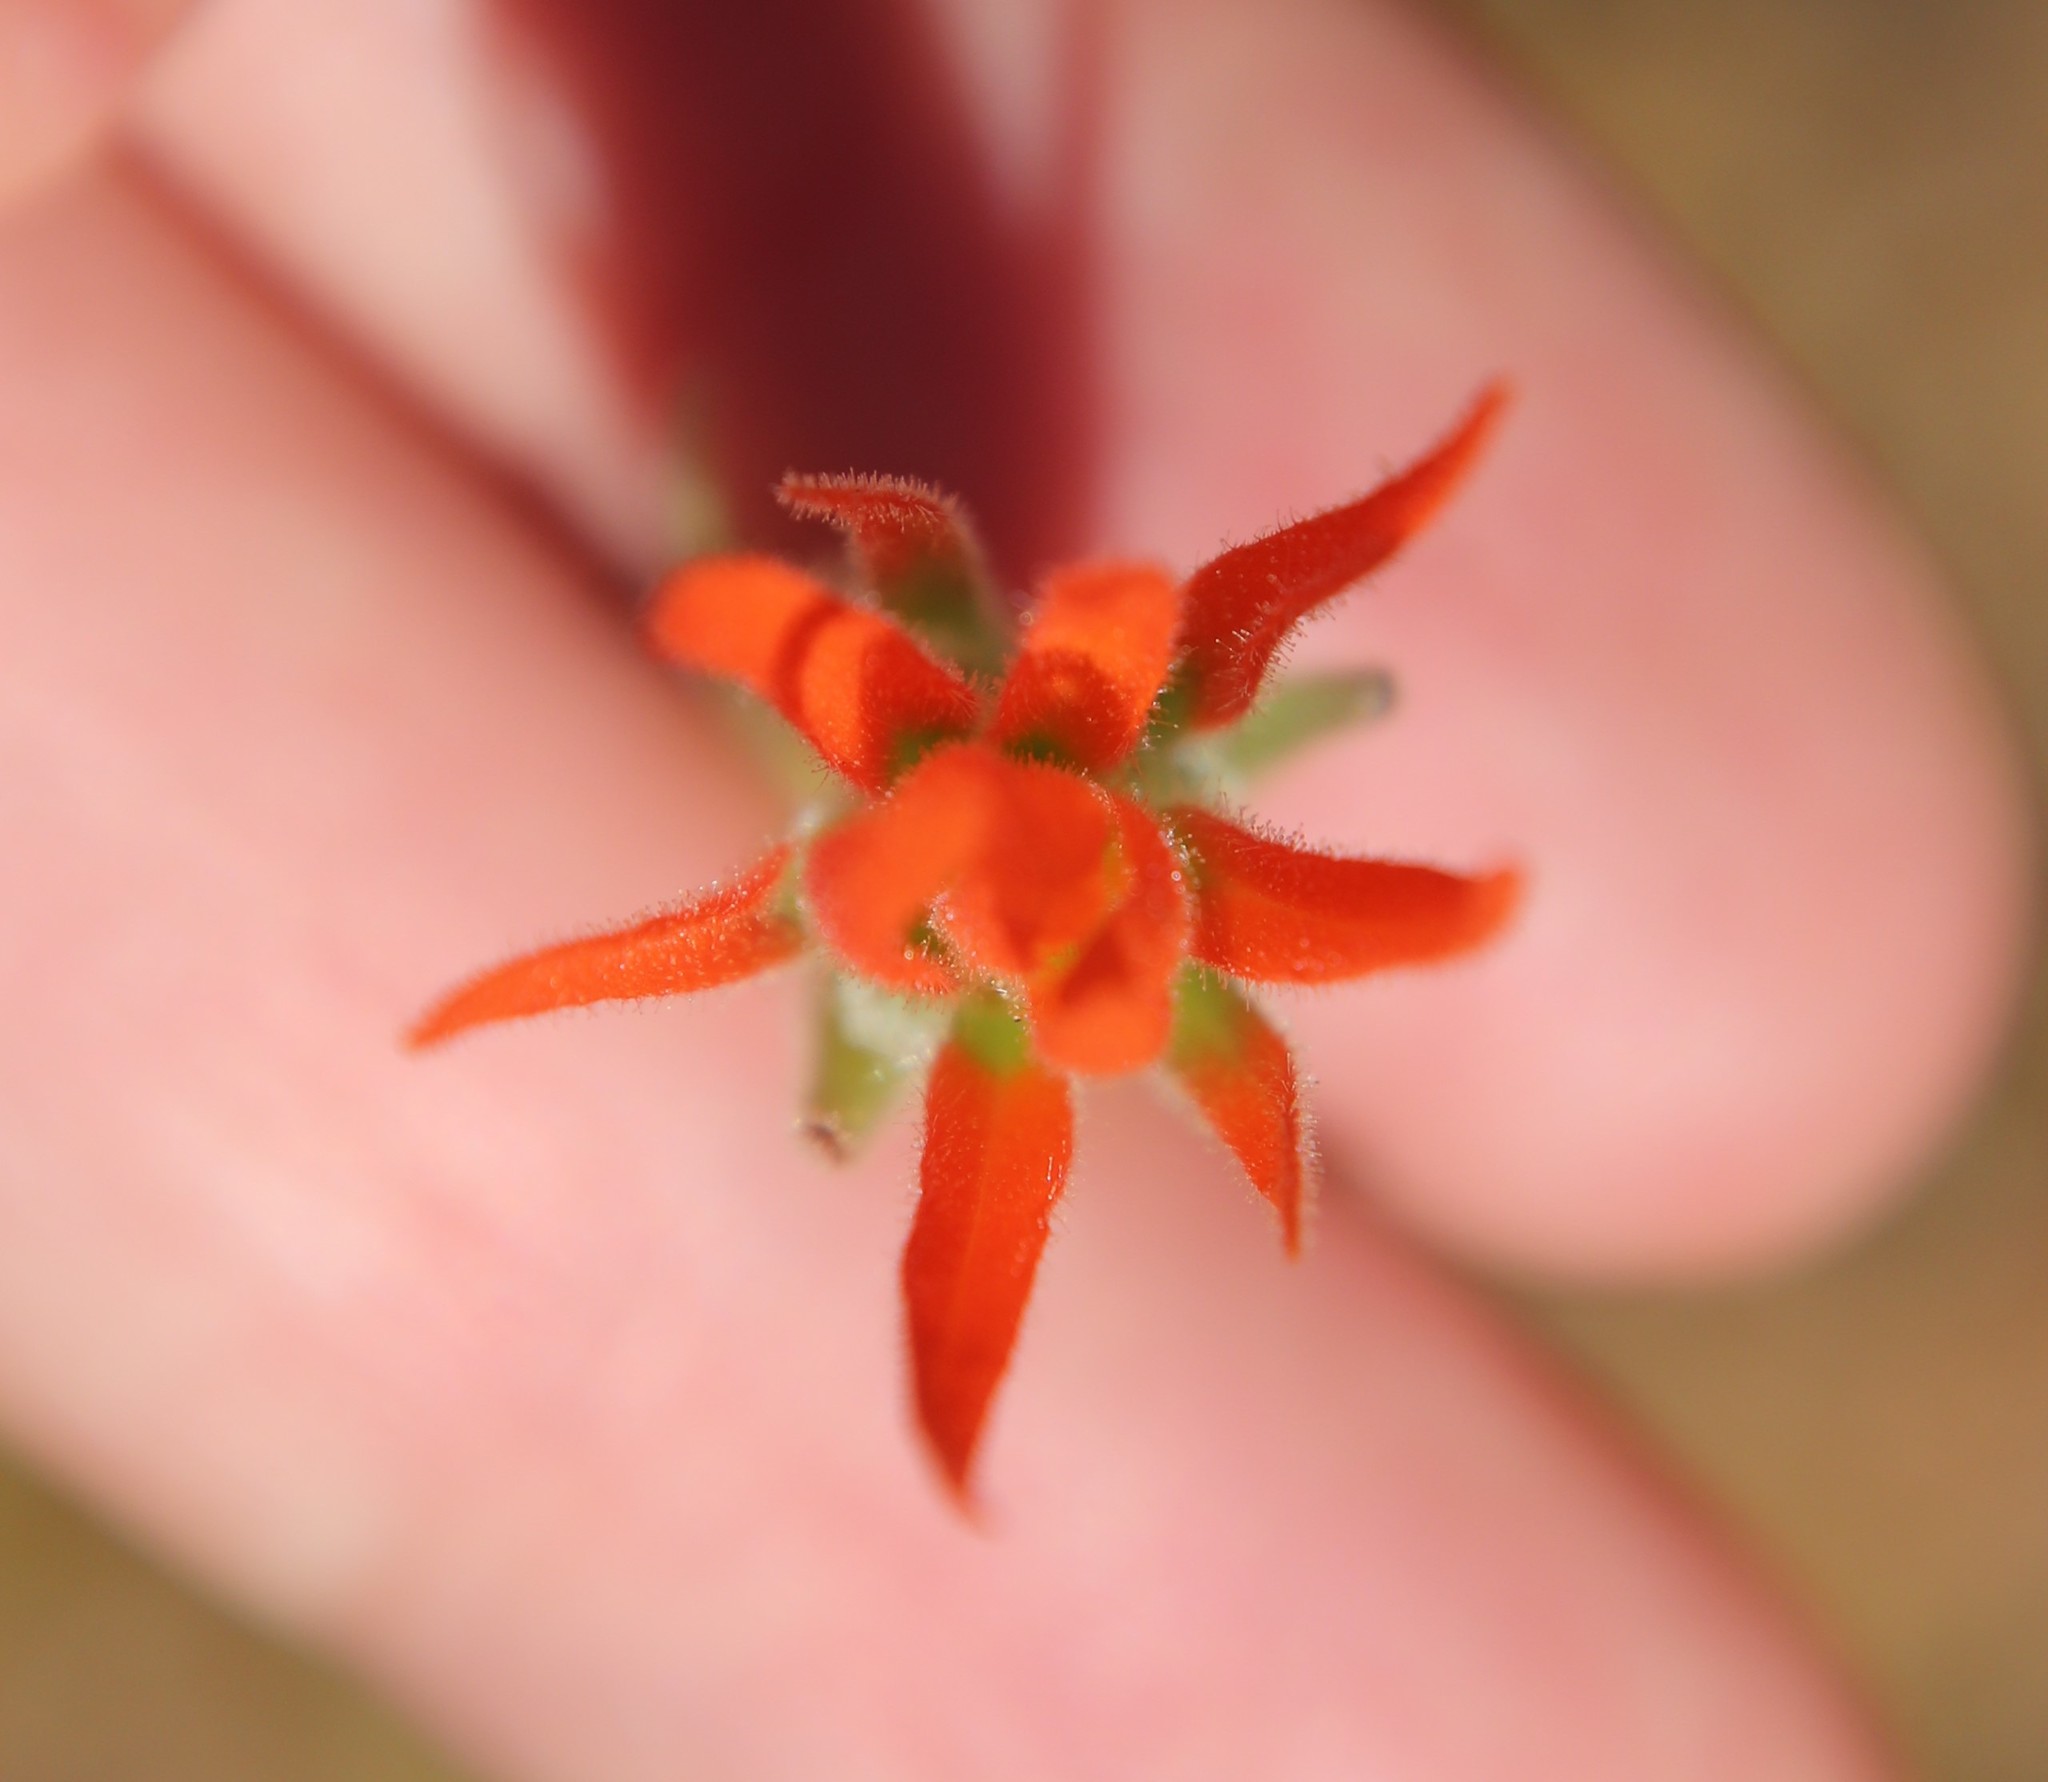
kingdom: Plantae
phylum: Tracheophyta
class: Magnoliopsida
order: Lamiales
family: Orobanchaceae
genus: Castilleja
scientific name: Castilleja minor
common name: Seep paintbrush
